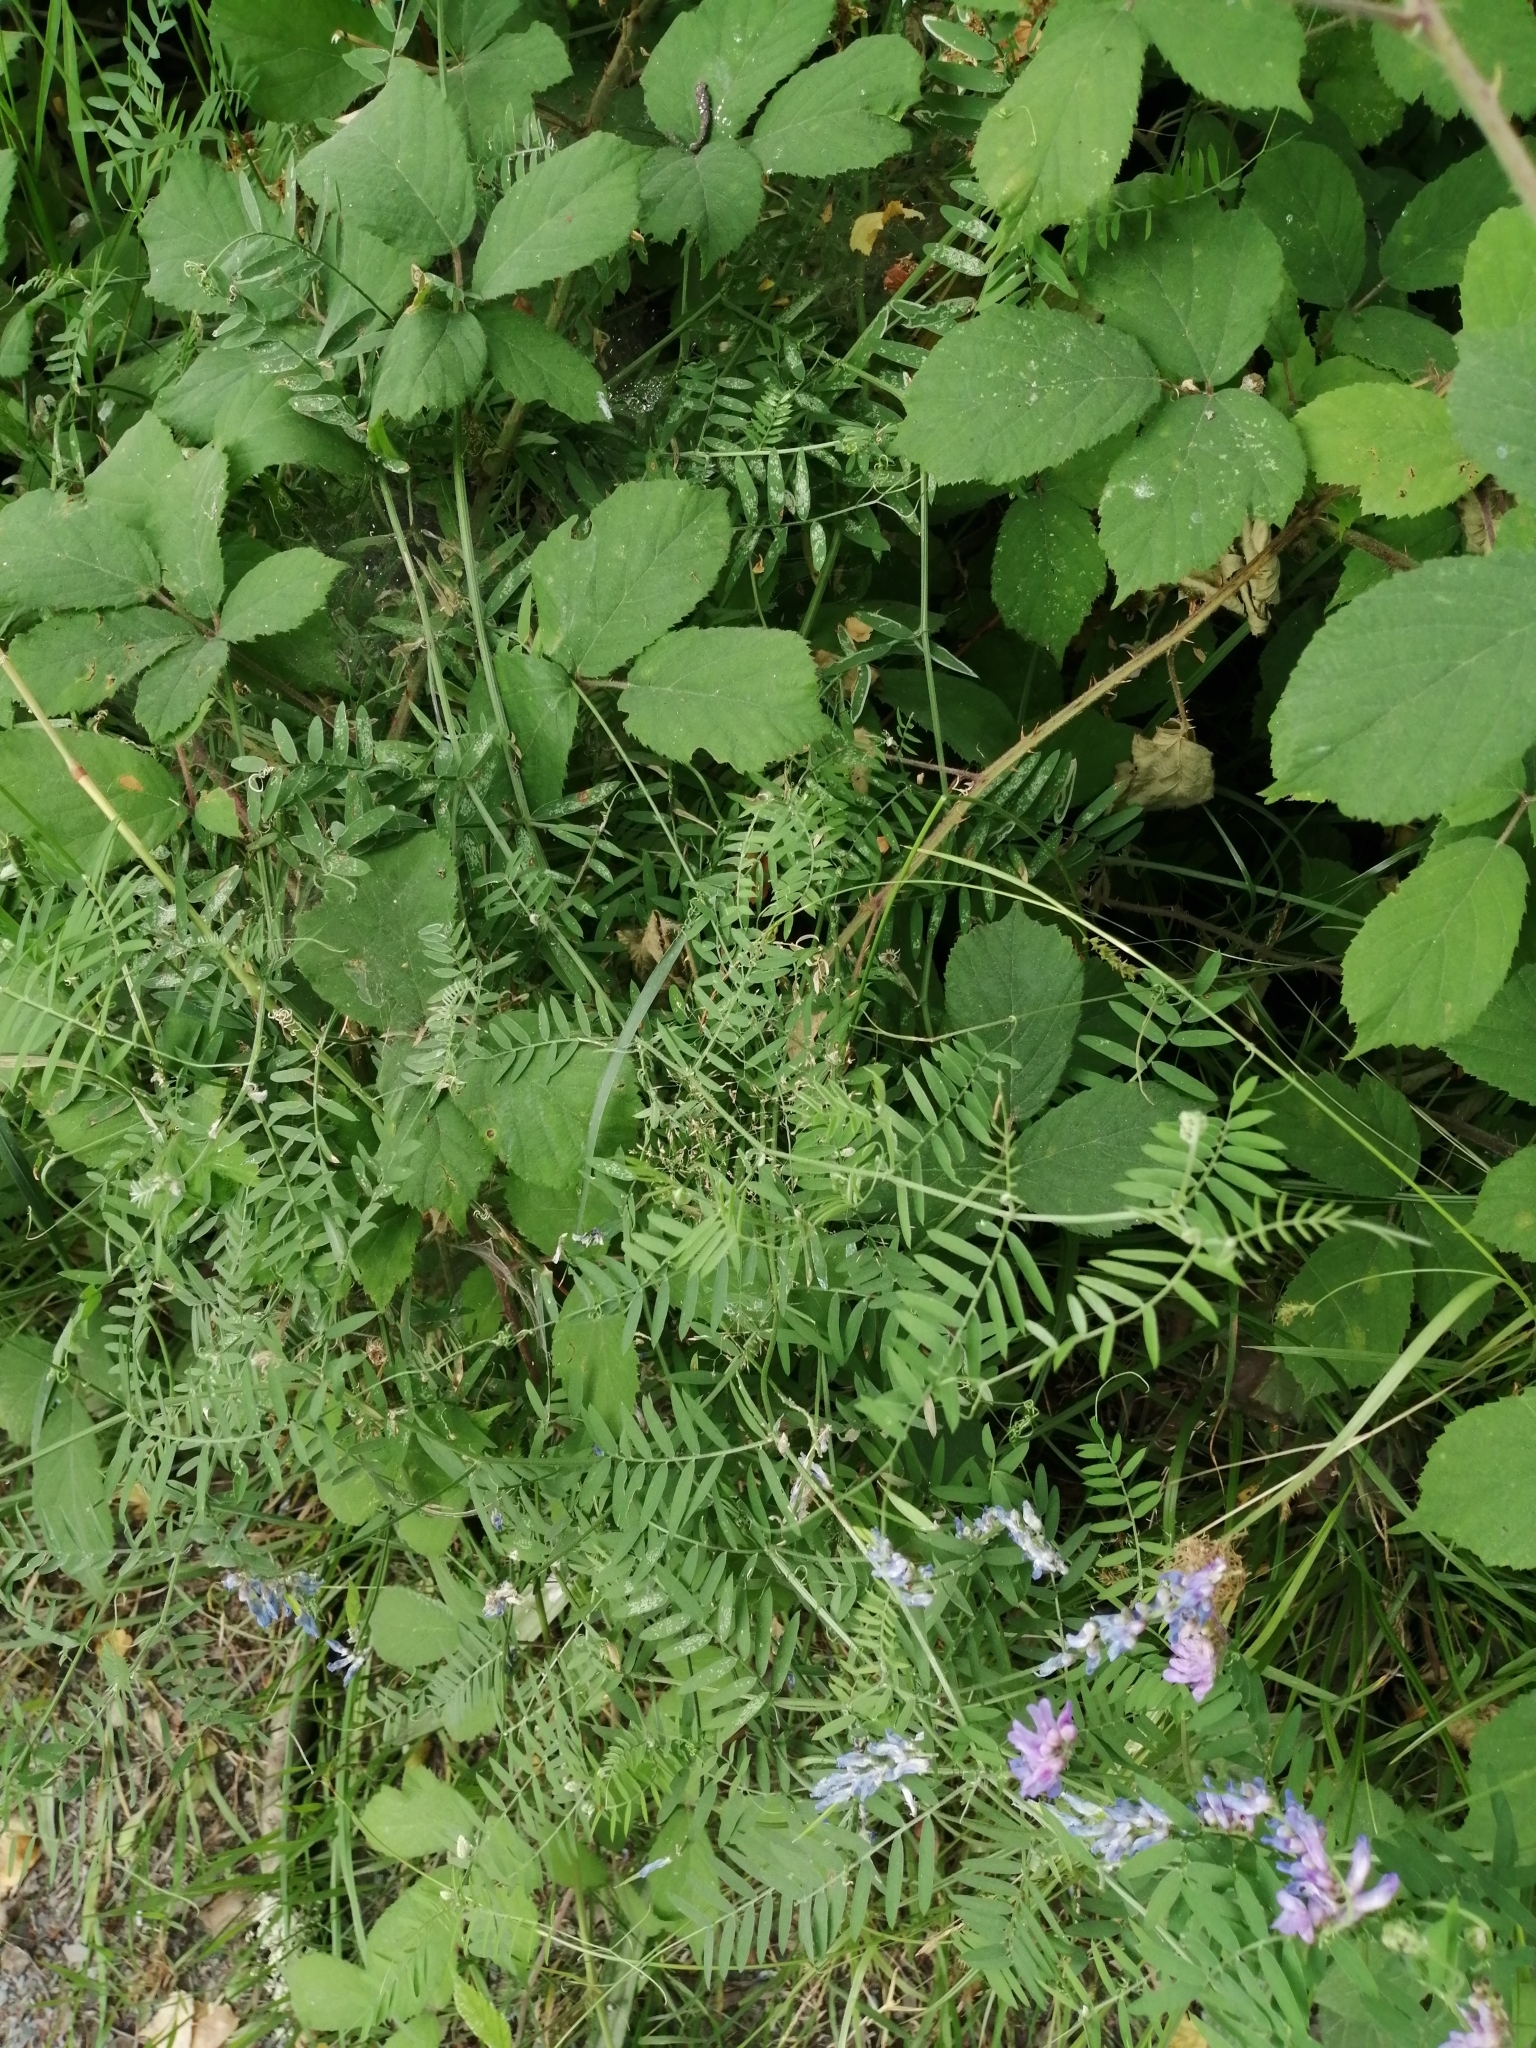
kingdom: Plantae
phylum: Tracheophyta
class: Magnoliopsida
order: Fabales
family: Fabaceae
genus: Vicia
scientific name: Vicia cracca
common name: Bird vetch
